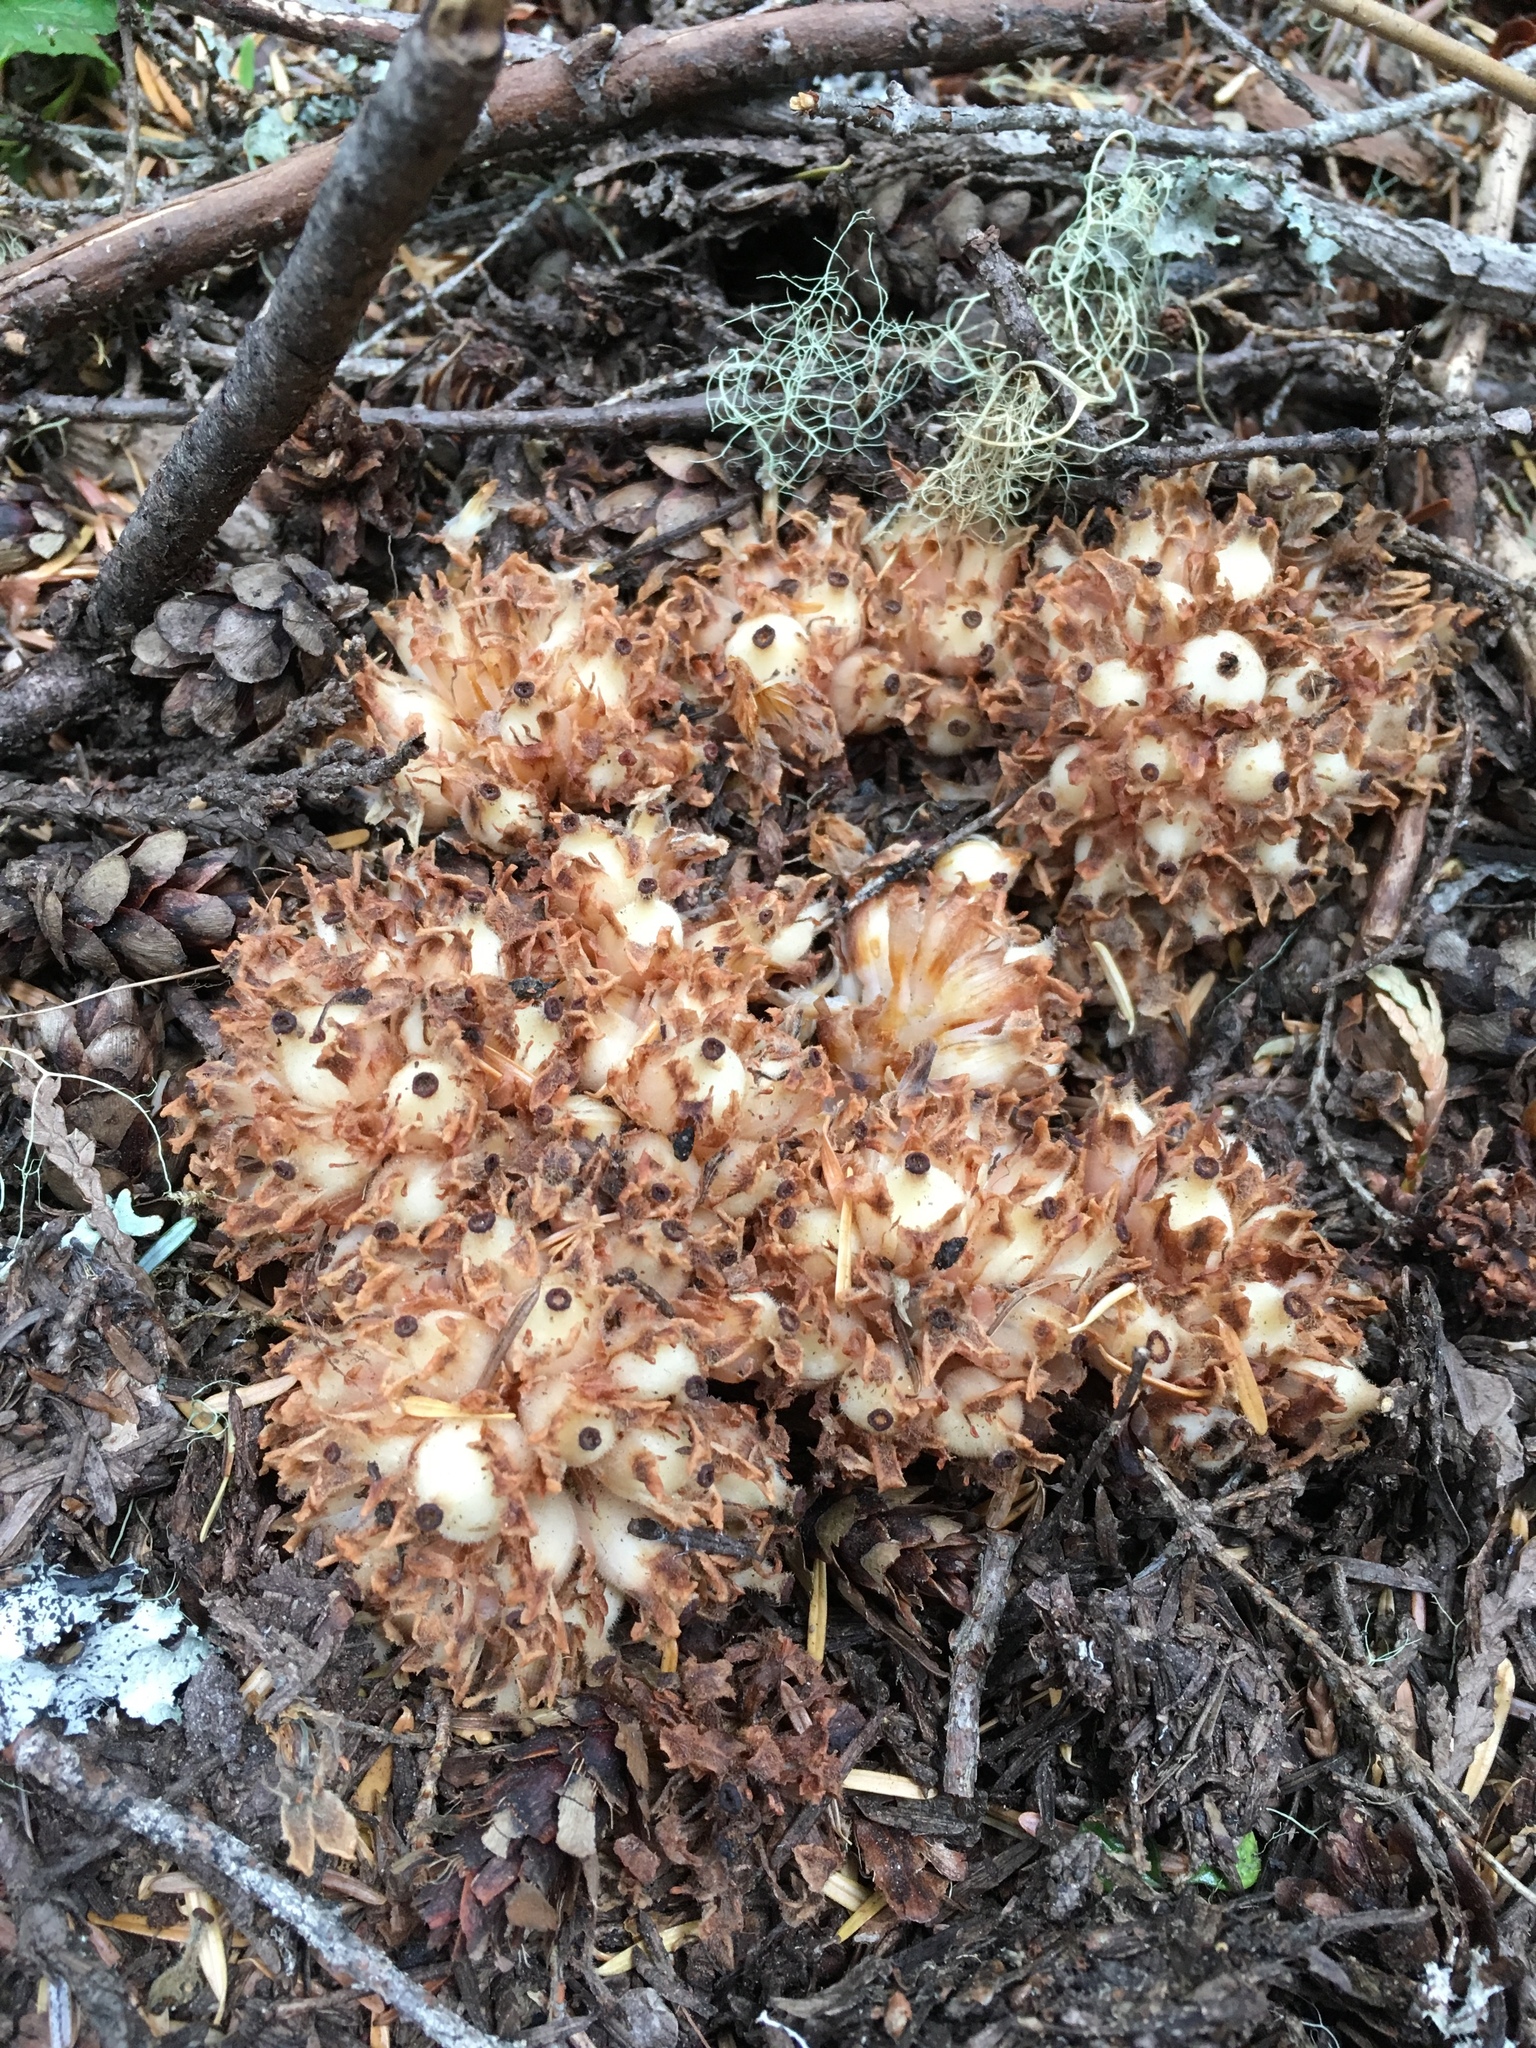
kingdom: Plantae
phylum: Tracheophyta
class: Magnoliopsida
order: Ericales
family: Ericaceae
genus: Hemitomes
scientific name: Hemitomes congestum
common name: Cone plant
